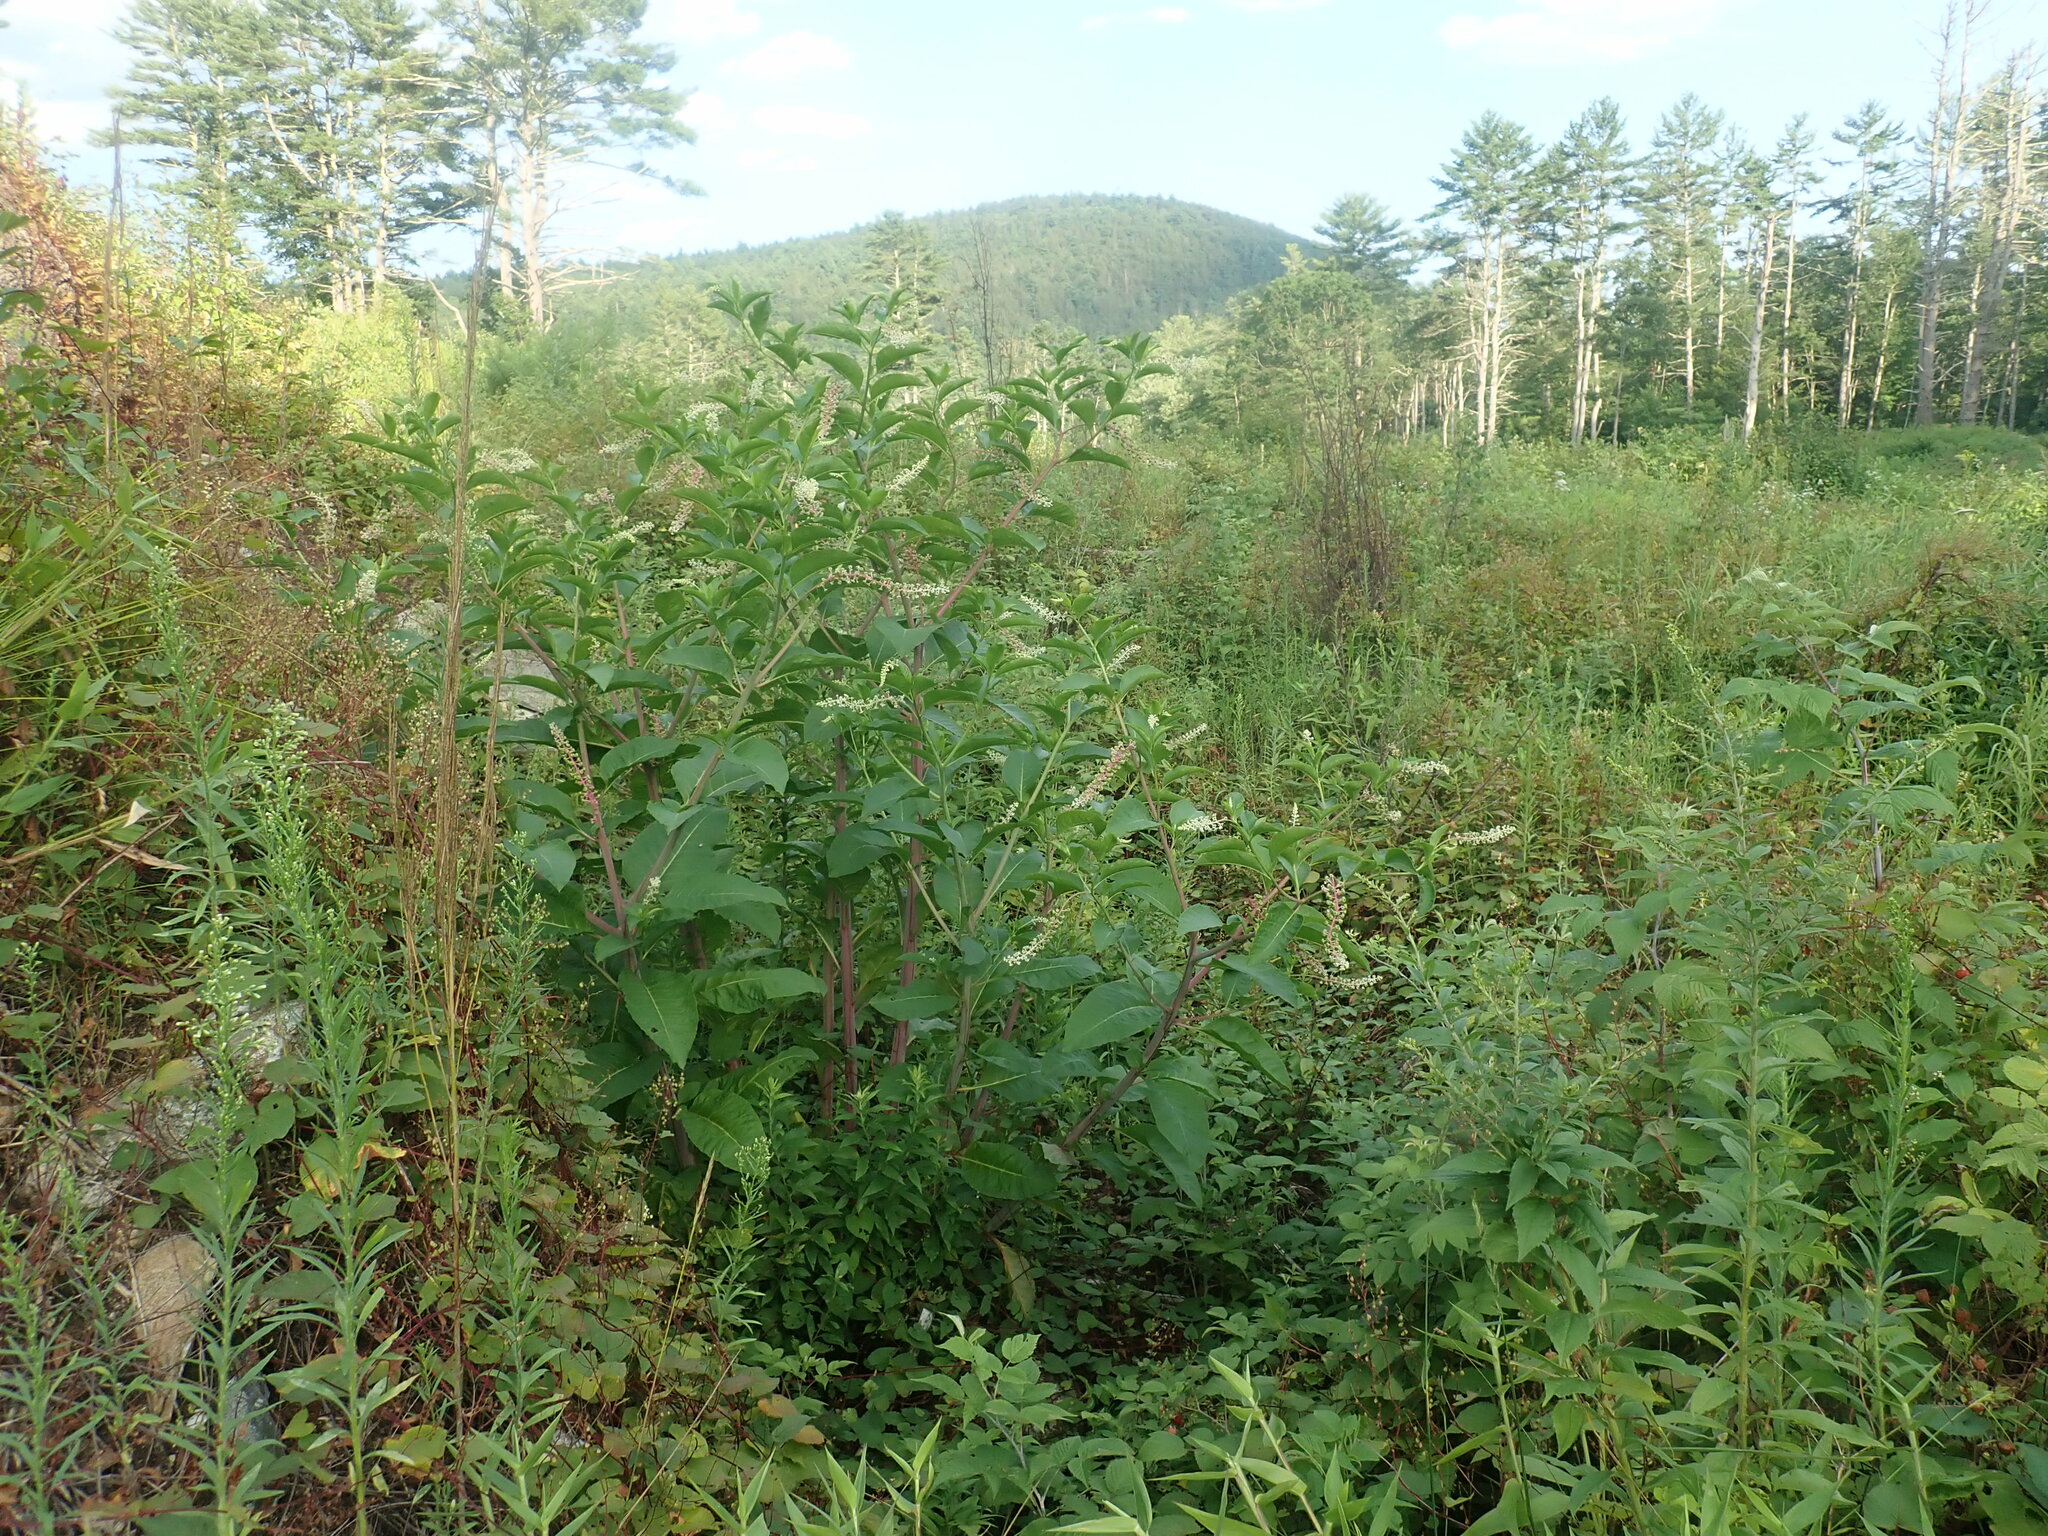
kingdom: Plantae
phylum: Tracheophyta
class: Magnoliopsida
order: Caryophyllales
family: Phytolaccaceae
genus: Phytolacca
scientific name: Phytolacca americana
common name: American pokeweed
